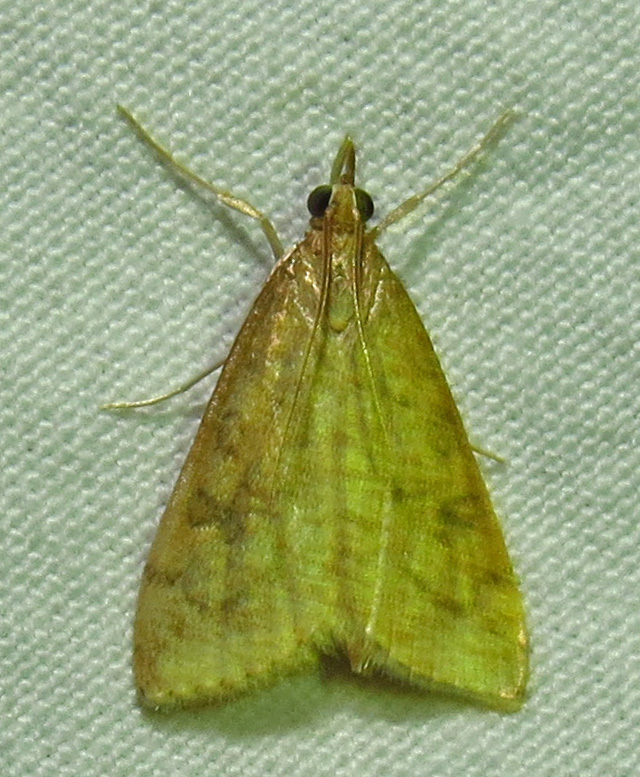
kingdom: Animalia
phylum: Arthropoda
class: Insecta
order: Lepidoptera
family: Crambidae
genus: Udea
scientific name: Udea rubigalis
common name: Celery leaftier moth
